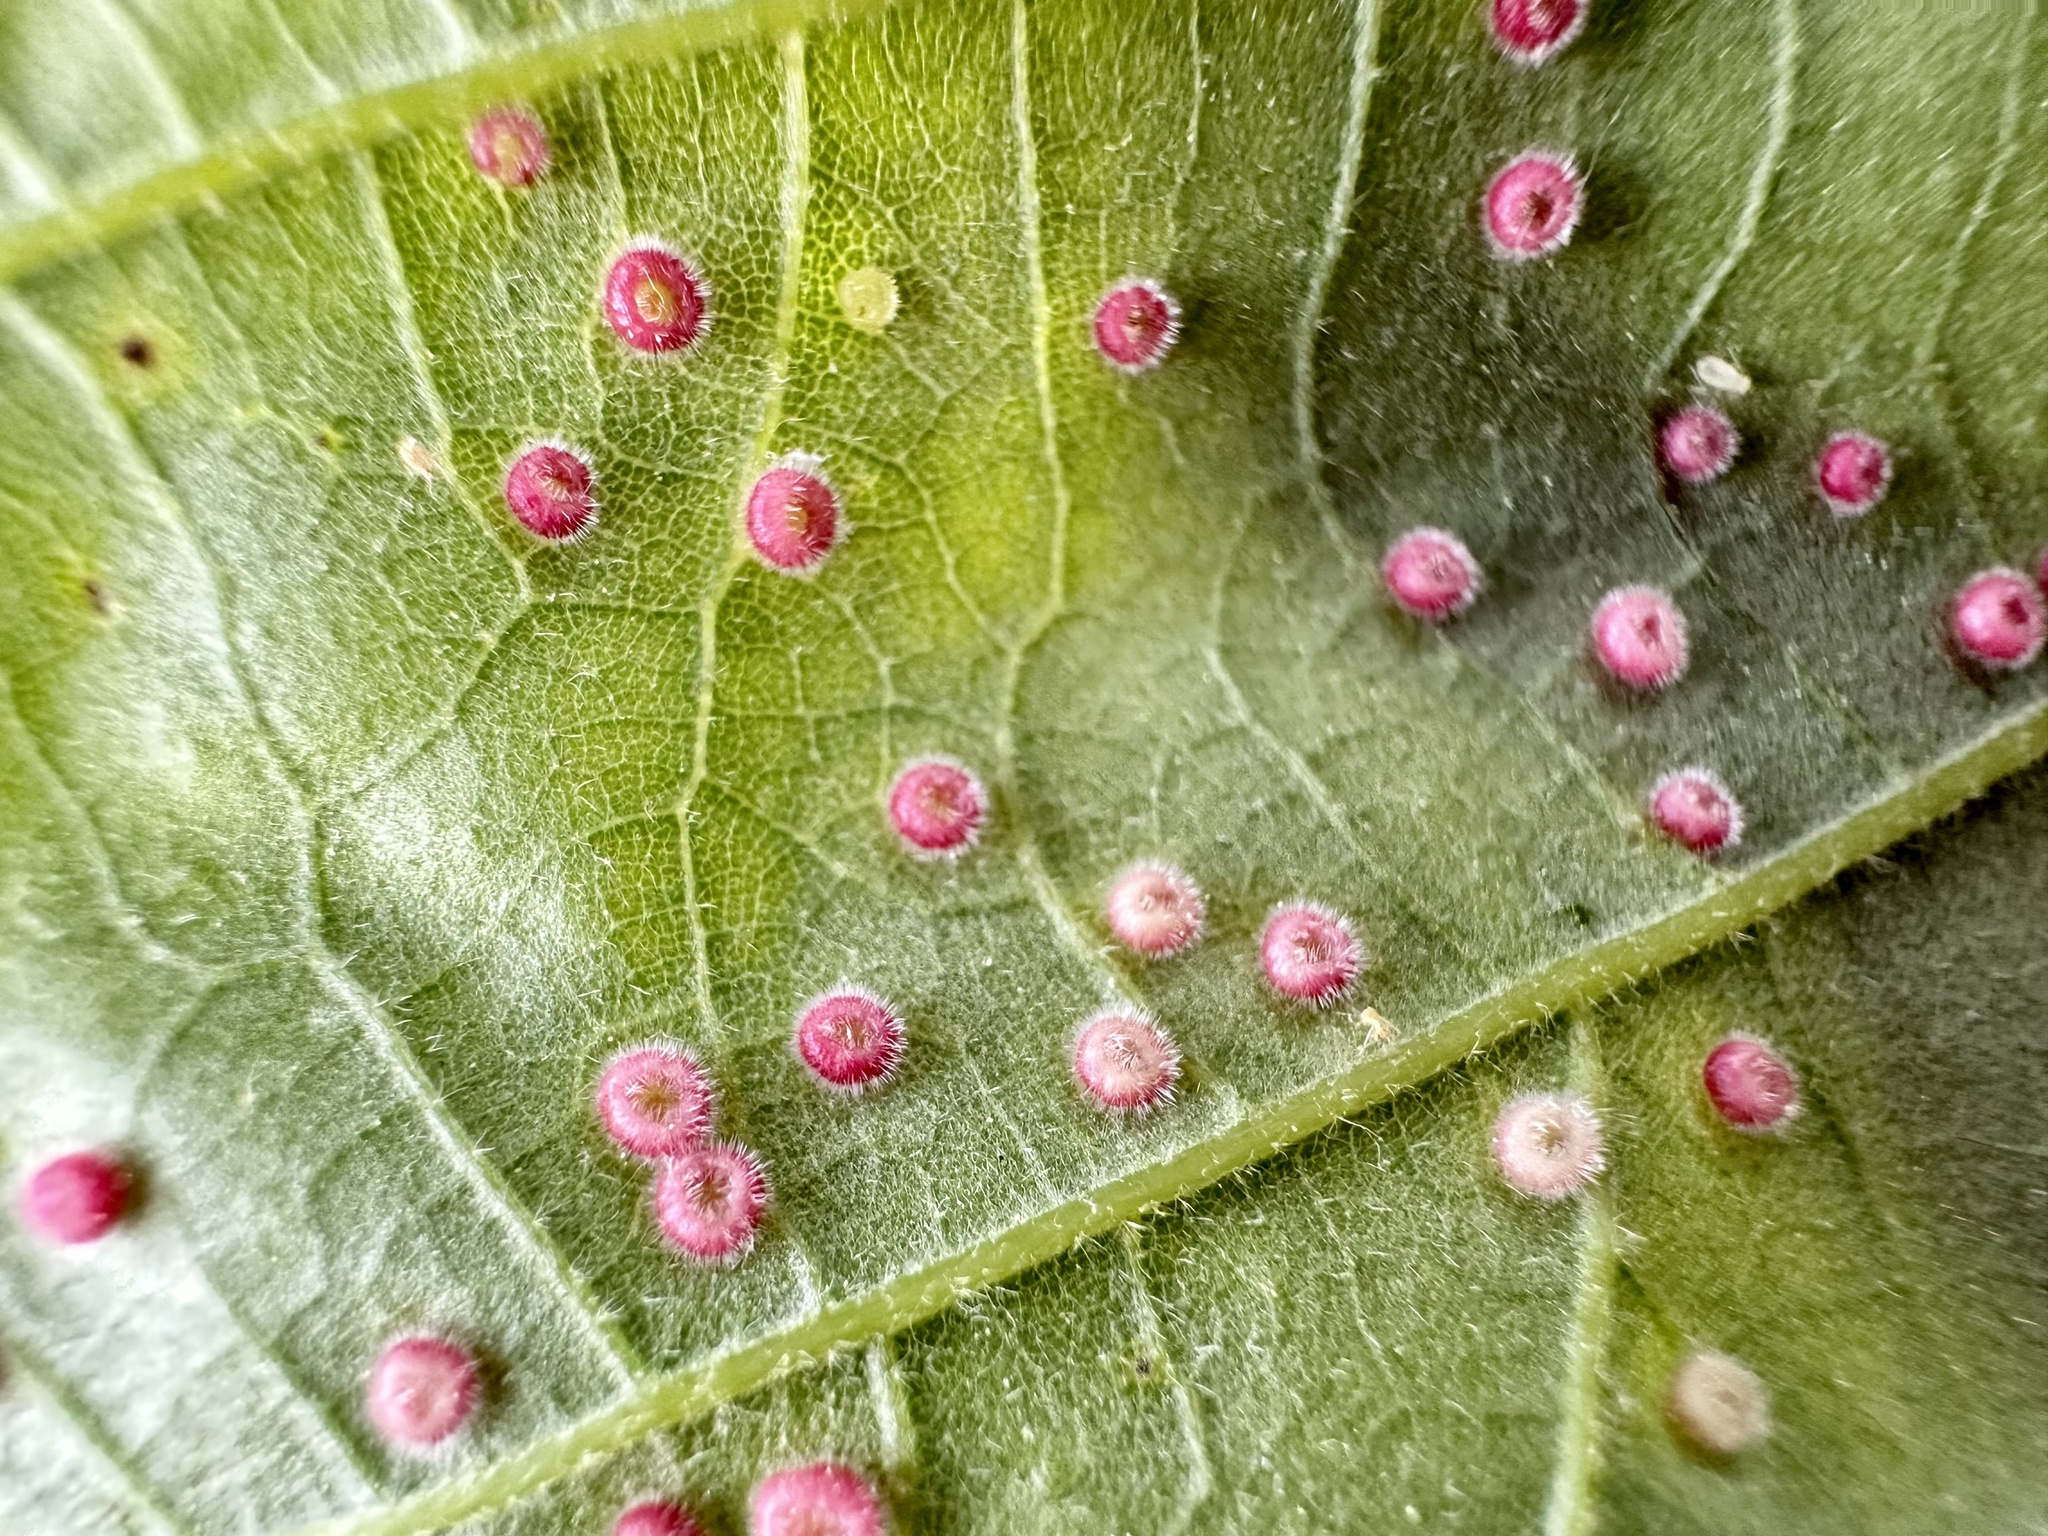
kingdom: Animalia
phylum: Arthropoda
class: Insecta
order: Hymenoptera
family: Cynipidae
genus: Neuroterus
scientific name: Neuroterus
